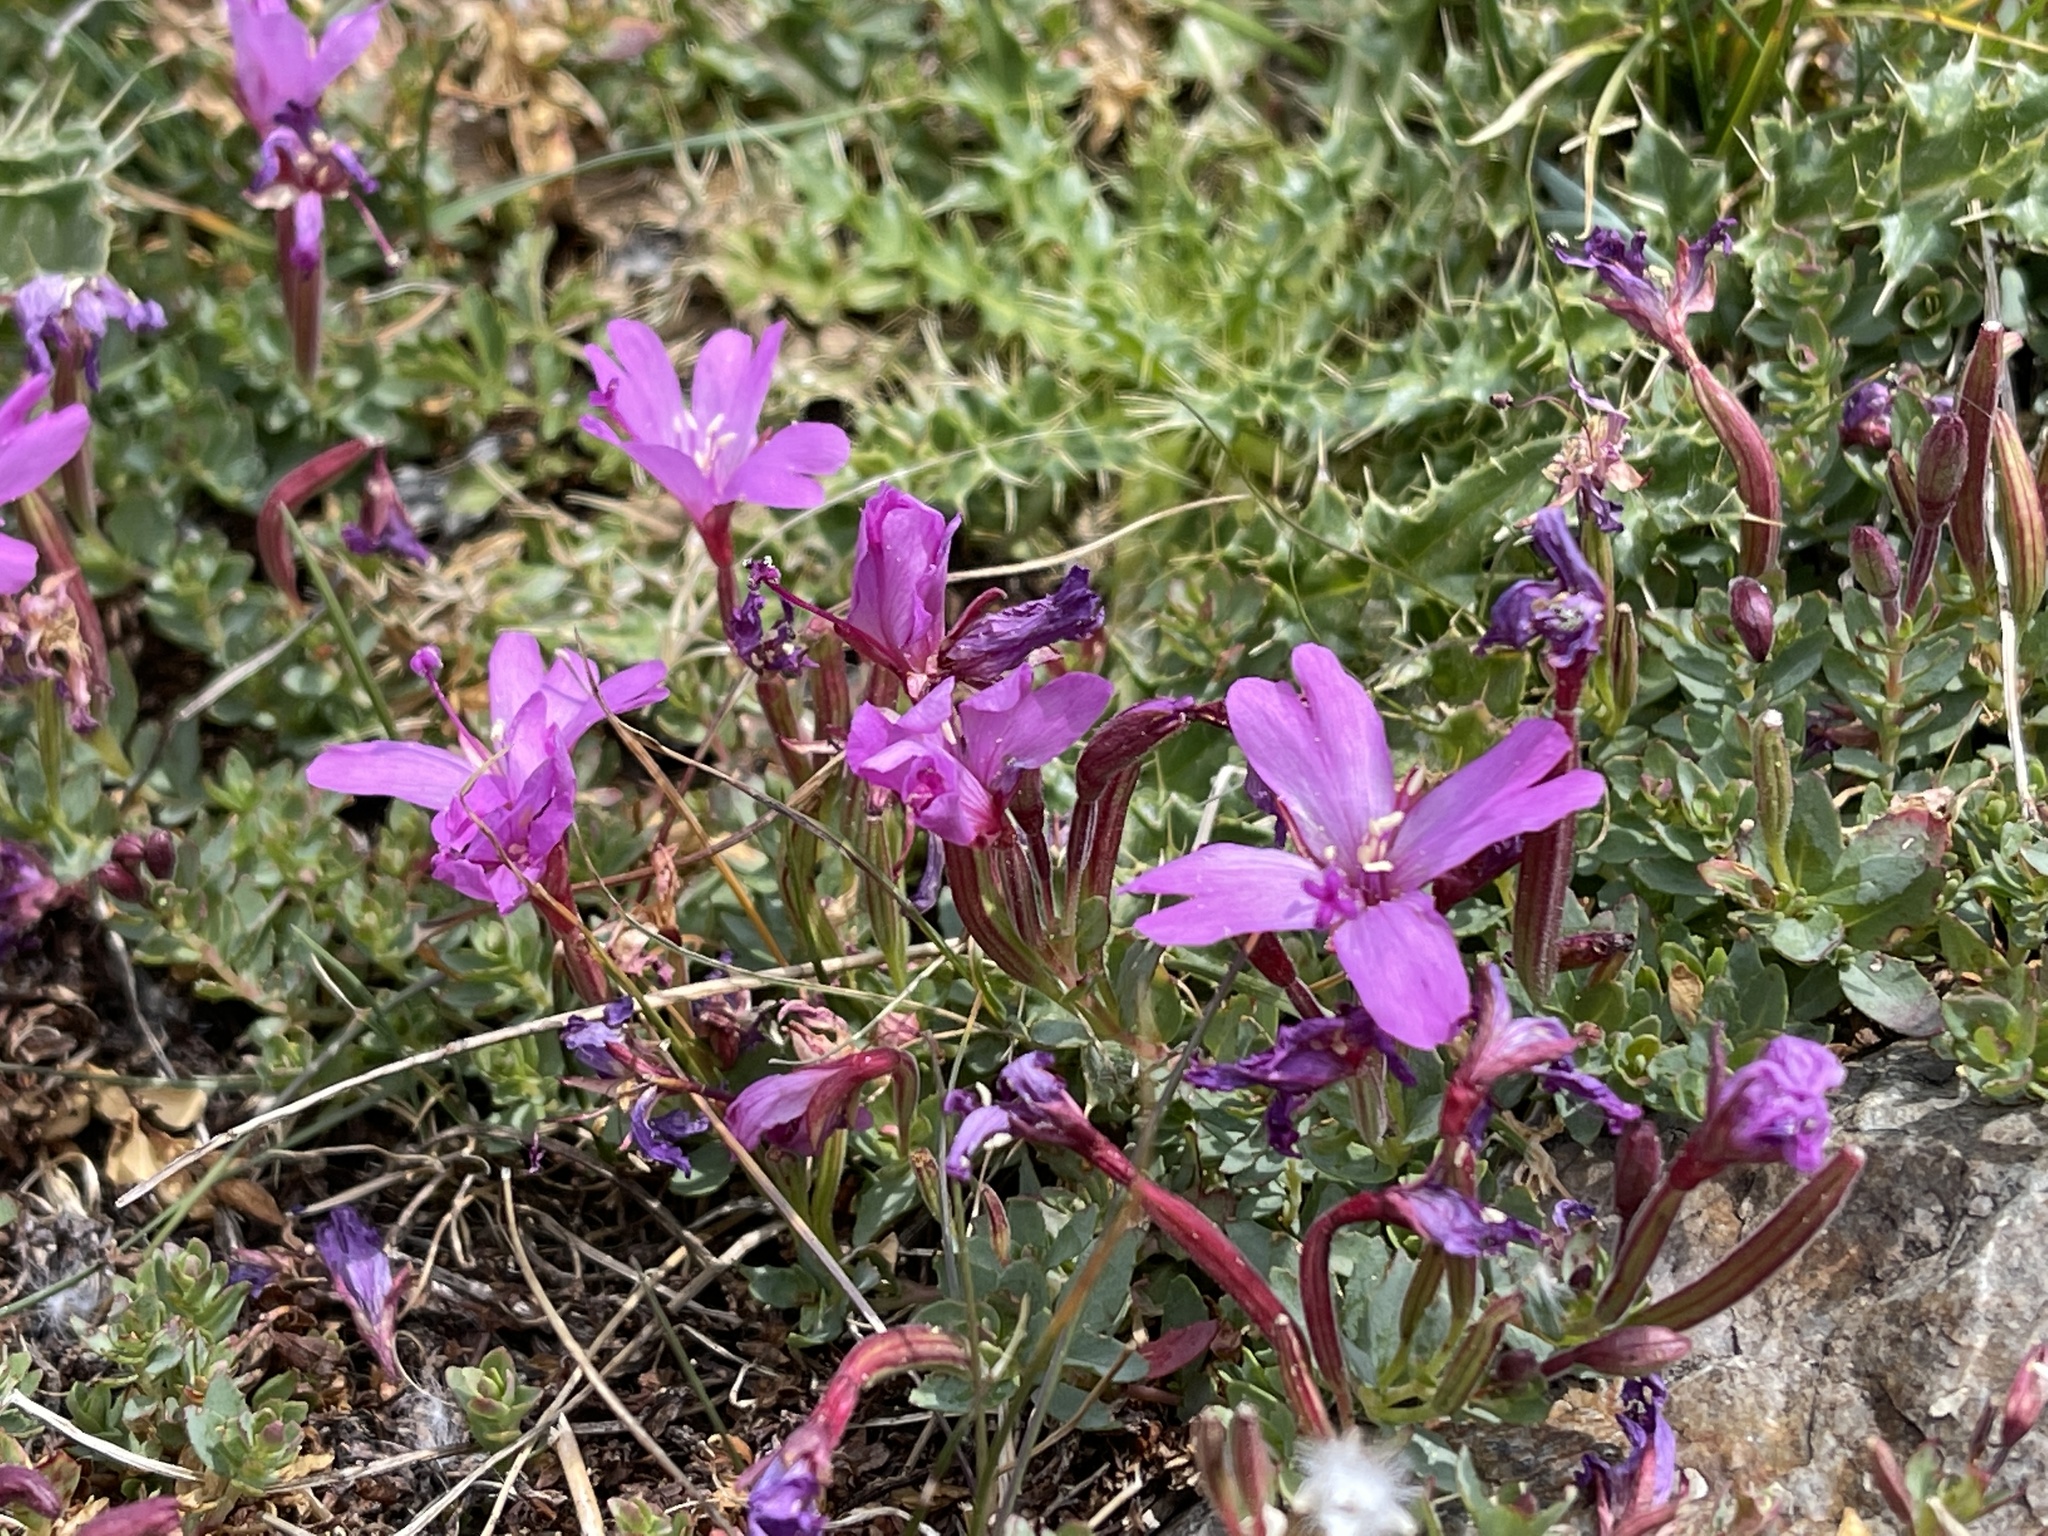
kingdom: Plantae
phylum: Tracheophyta
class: Magnoliopsida
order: Myrtales
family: Onagraceae
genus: Epilobium
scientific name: Epilobium obcordatum
